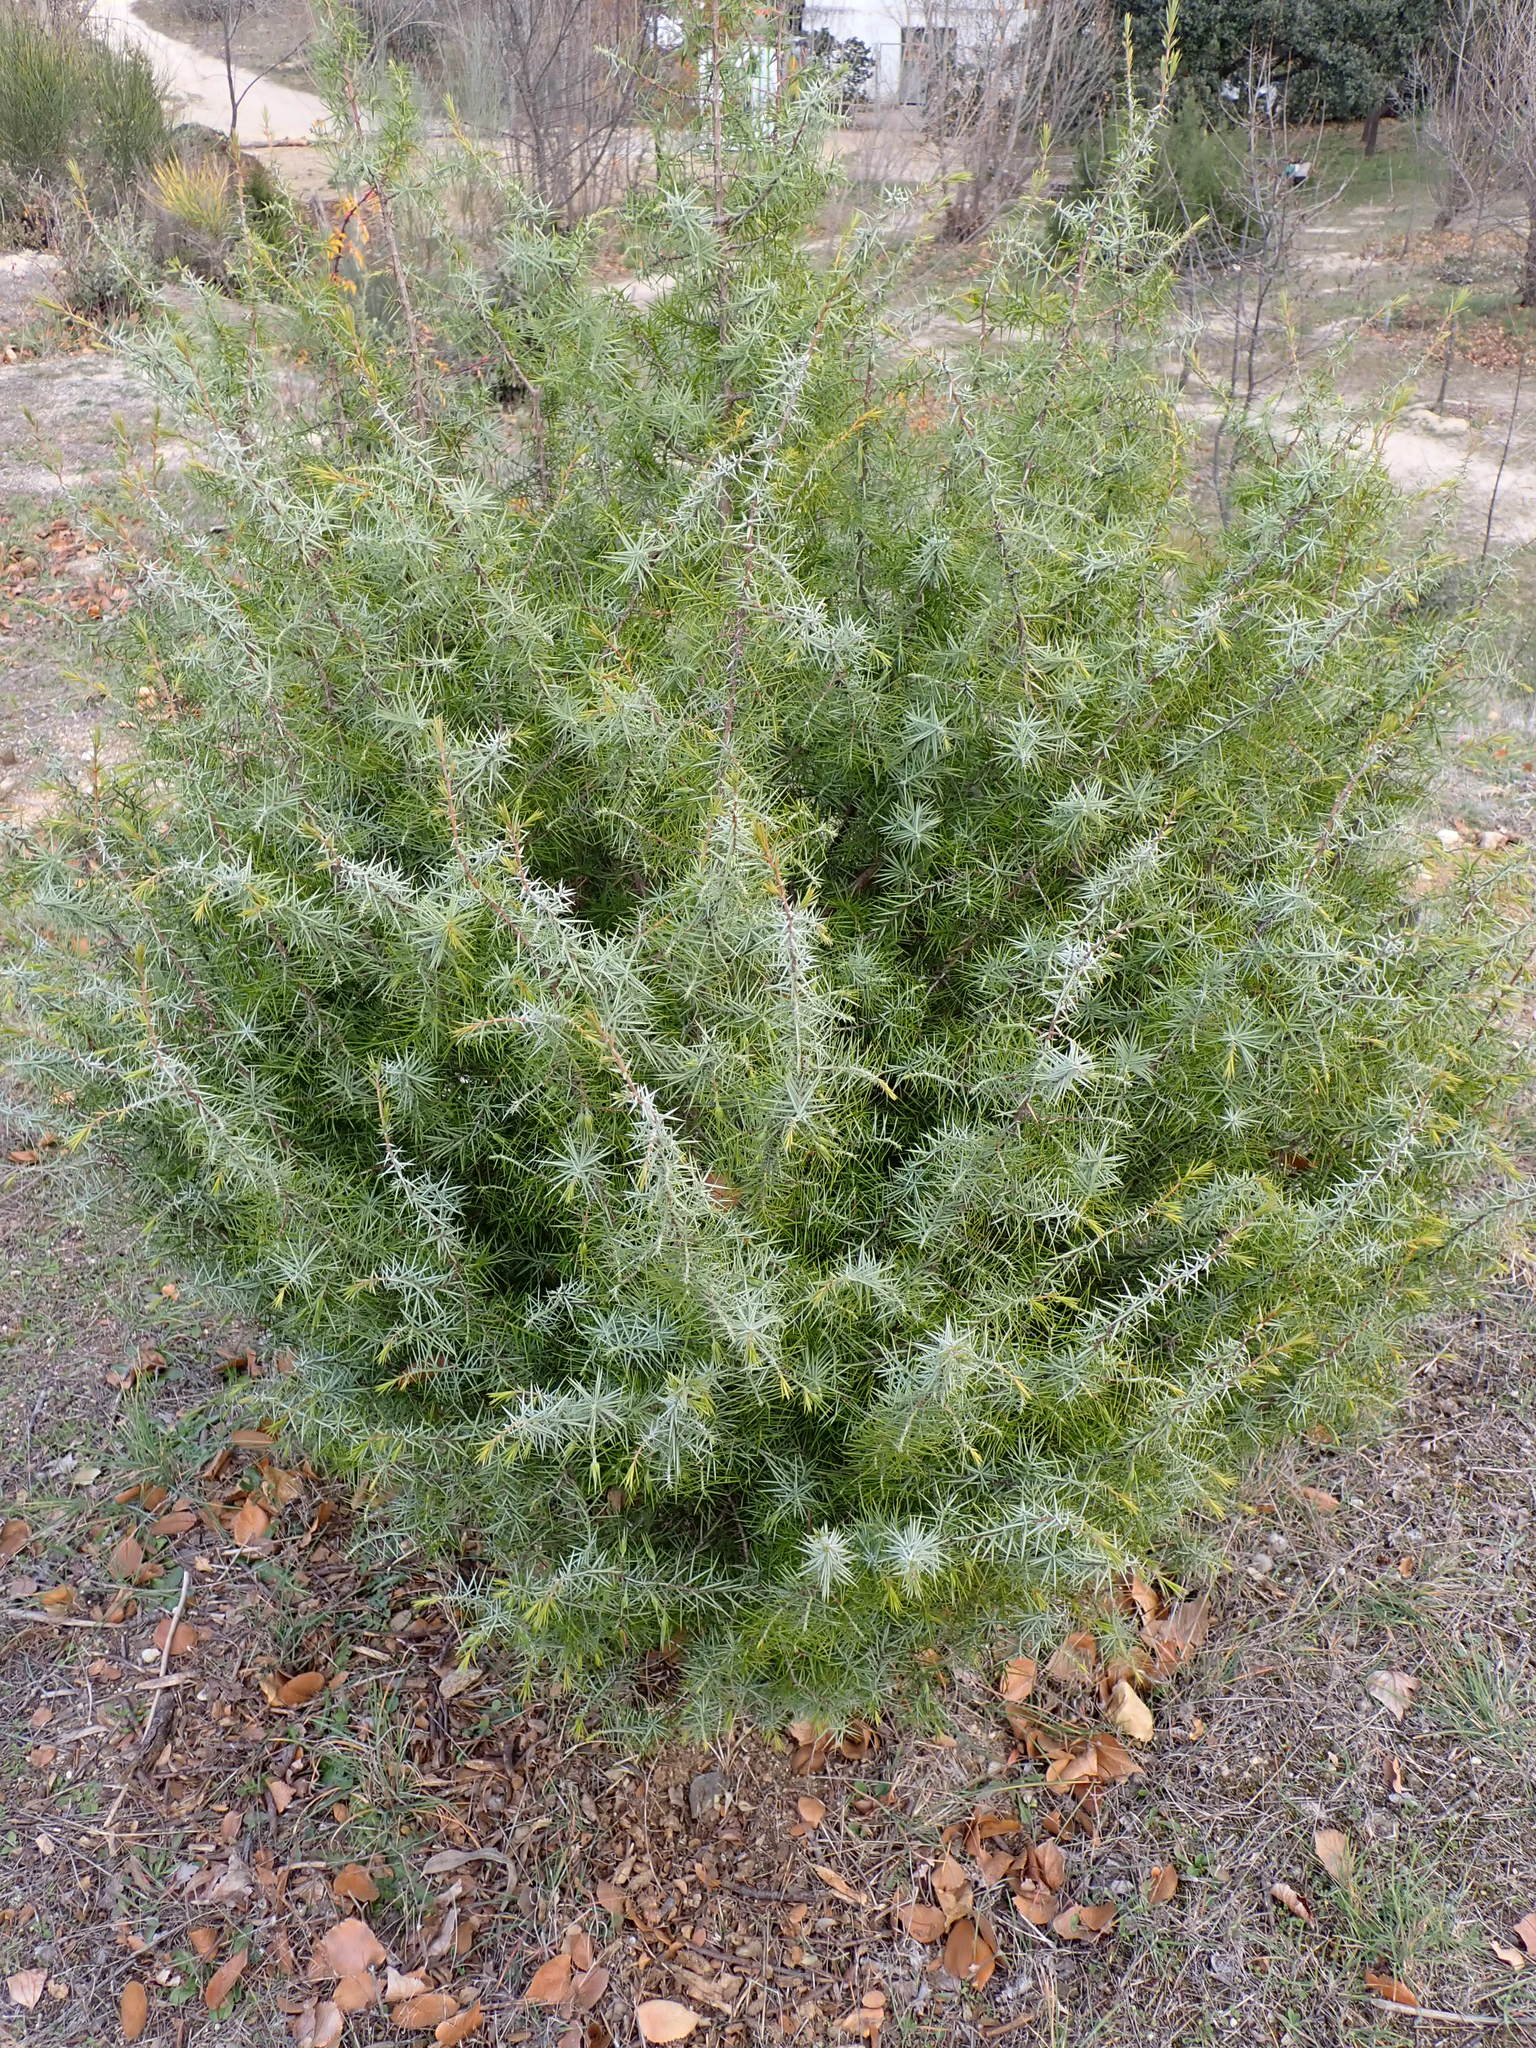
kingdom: Plantae
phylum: Tracheophyta
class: Pinopsida
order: Pinales
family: Cupressaceae
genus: Juniperus
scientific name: Juniperus oxycedrus
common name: Prickly juniper
